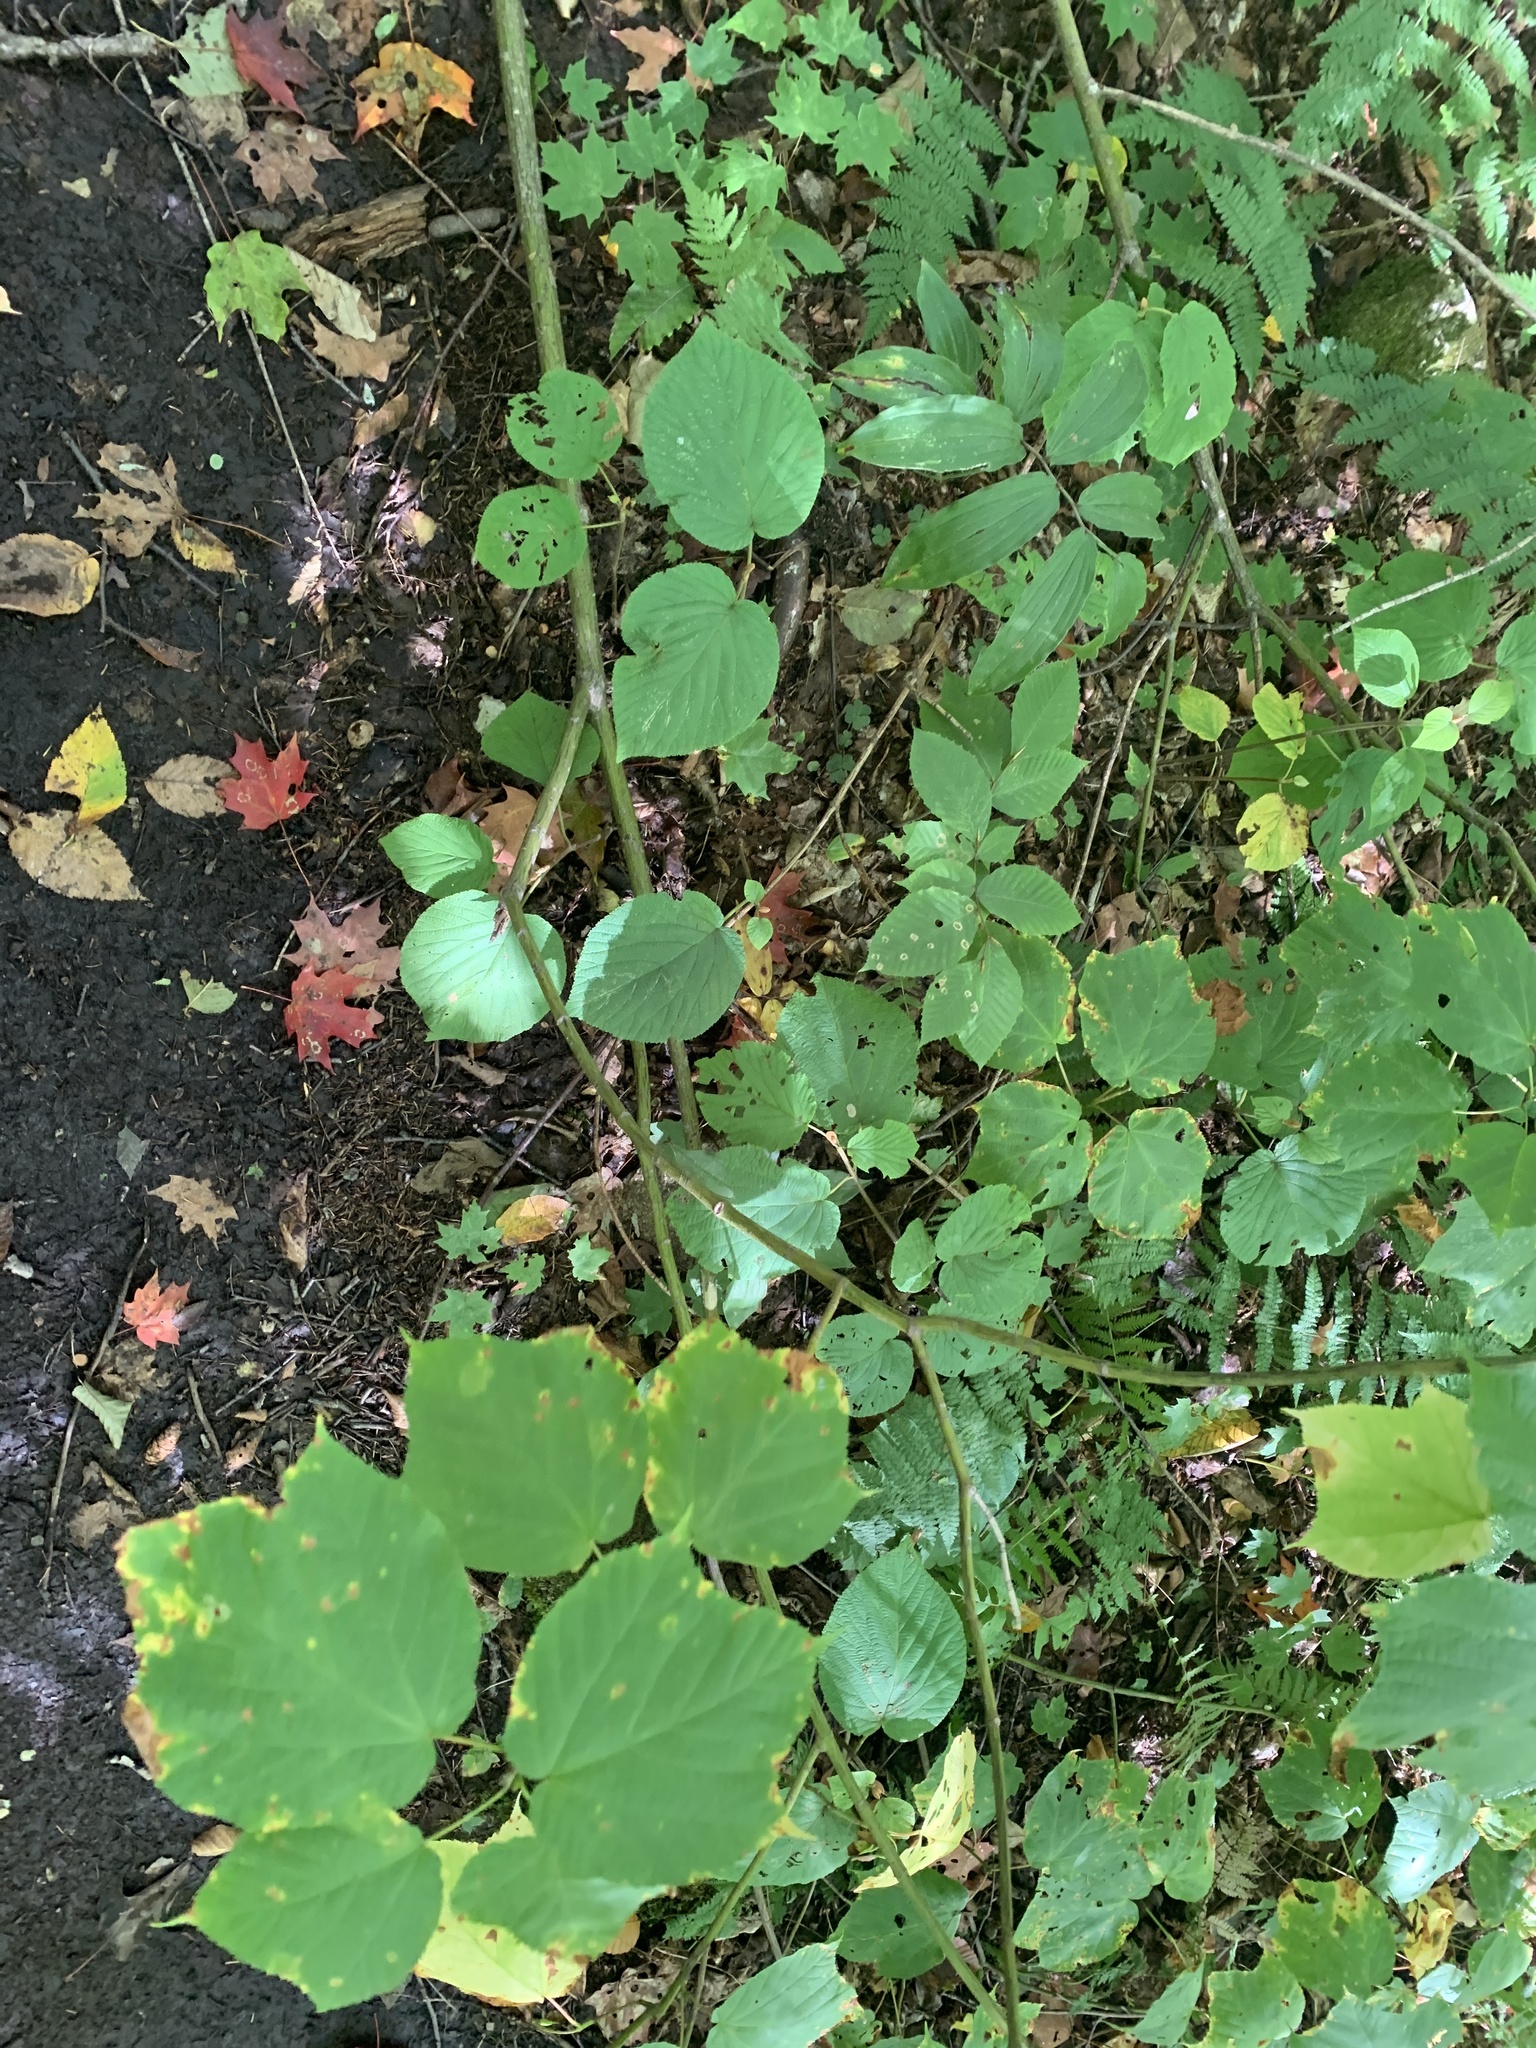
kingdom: Plantae
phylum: Tracheophyta
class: Magnoliopsida
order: Sapindales
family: Sapindaceae
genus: Acer
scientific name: Acer pensylvanicum
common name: Moosewood
